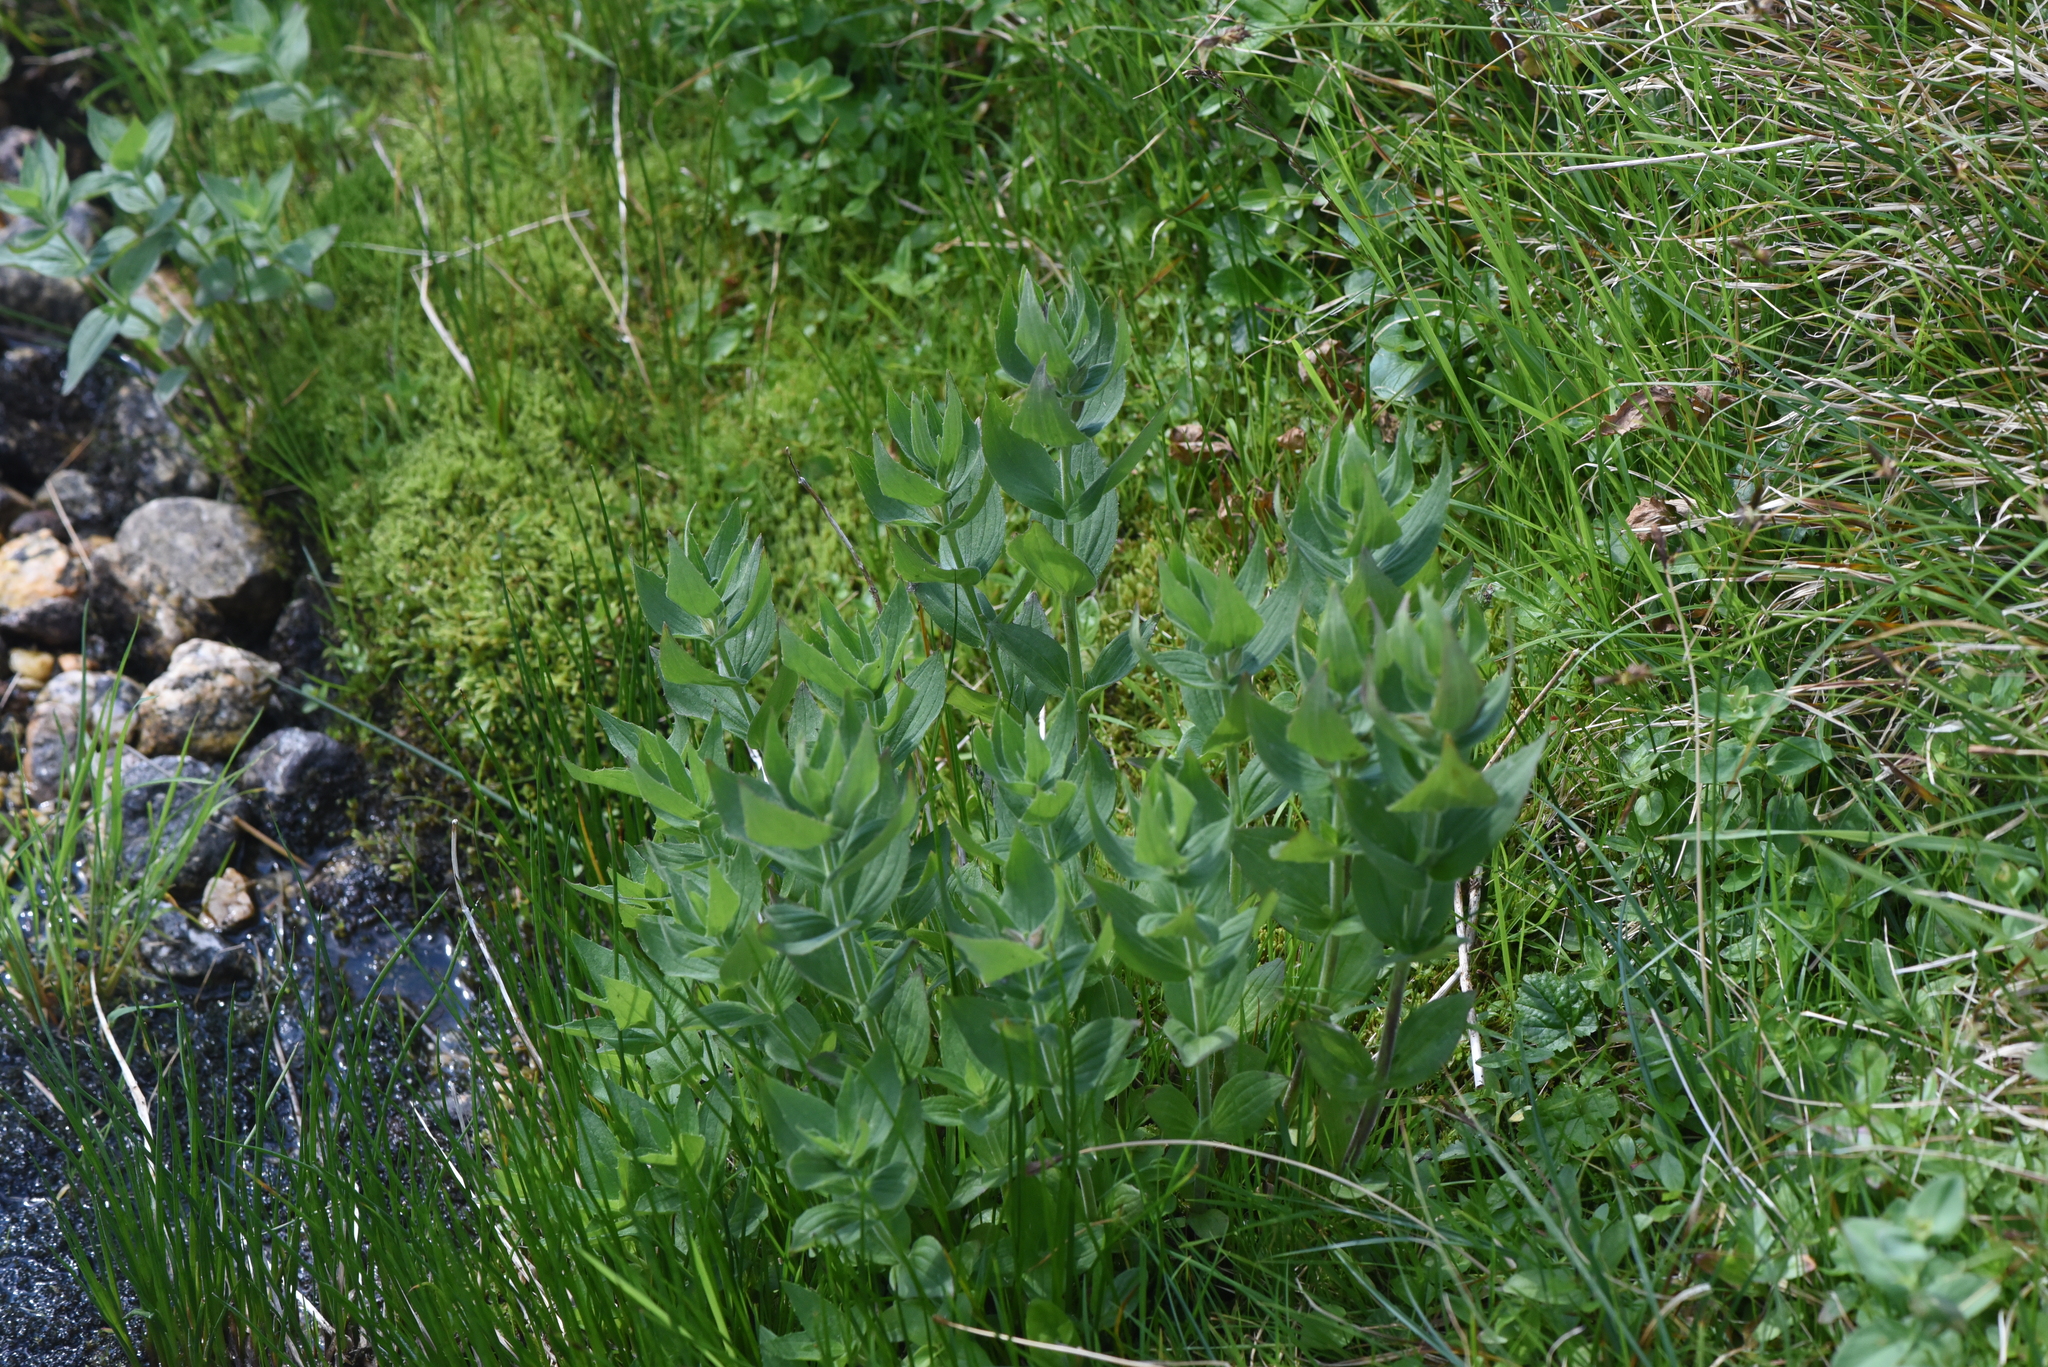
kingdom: Plantae
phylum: Tracheophyta
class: Magnoliopsida
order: Lamiales
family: Phrymaceae
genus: Erythranthe
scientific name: Erythranthe lewisii
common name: Lewis's monkey-flower
